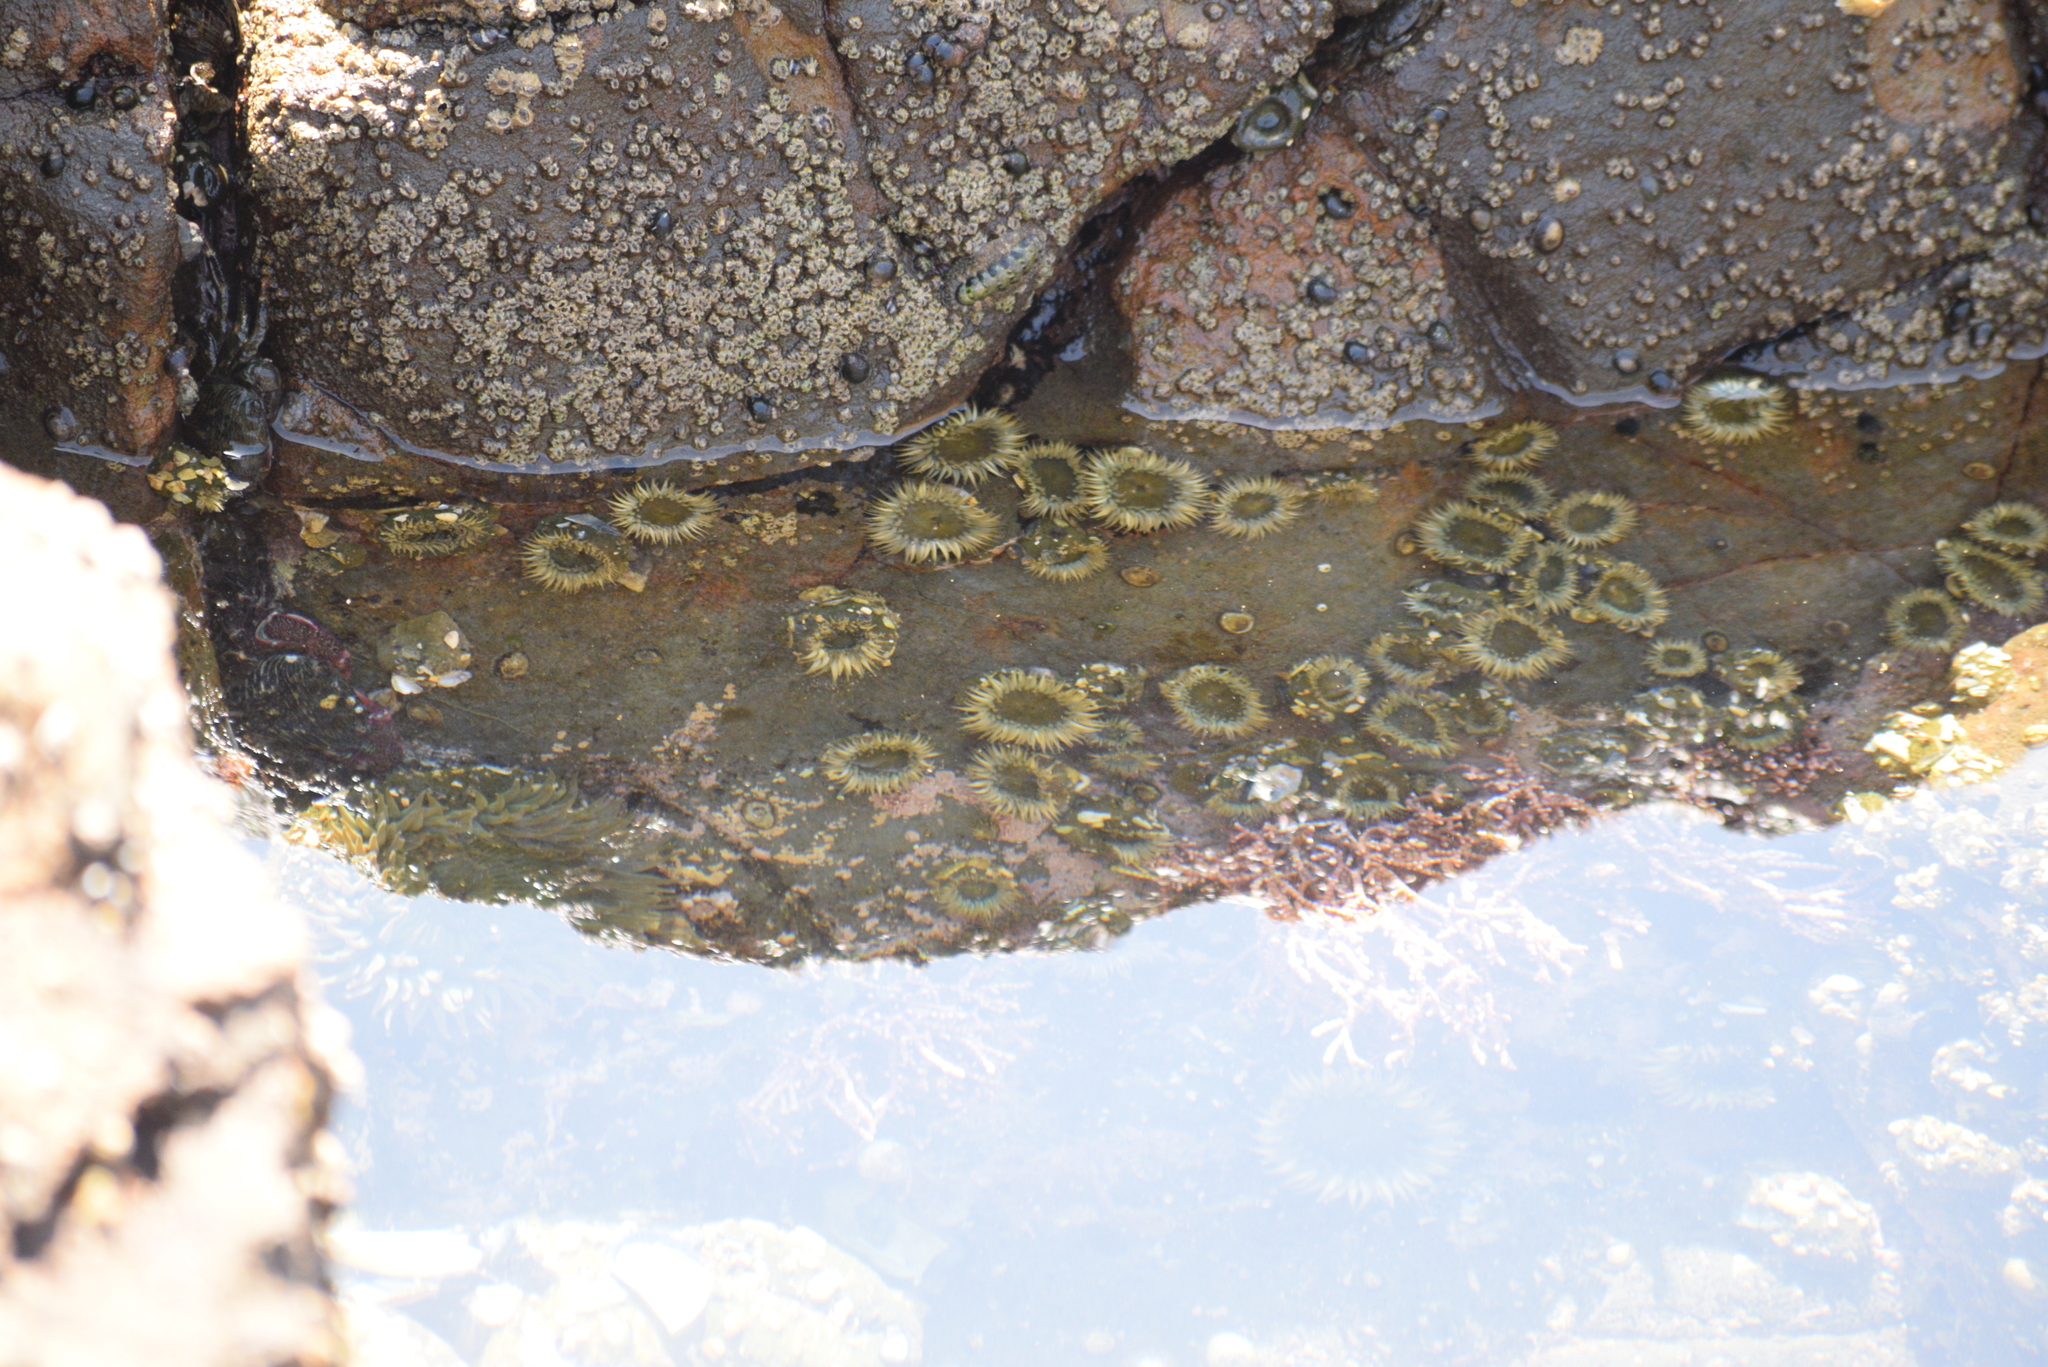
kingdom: Animalia
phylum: Cnidaria
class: Anthozoa
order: Actiniaria
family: Actiniidae
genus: Anthopleura
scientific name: Anthopleura elegantissima
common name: Clonal anemone
